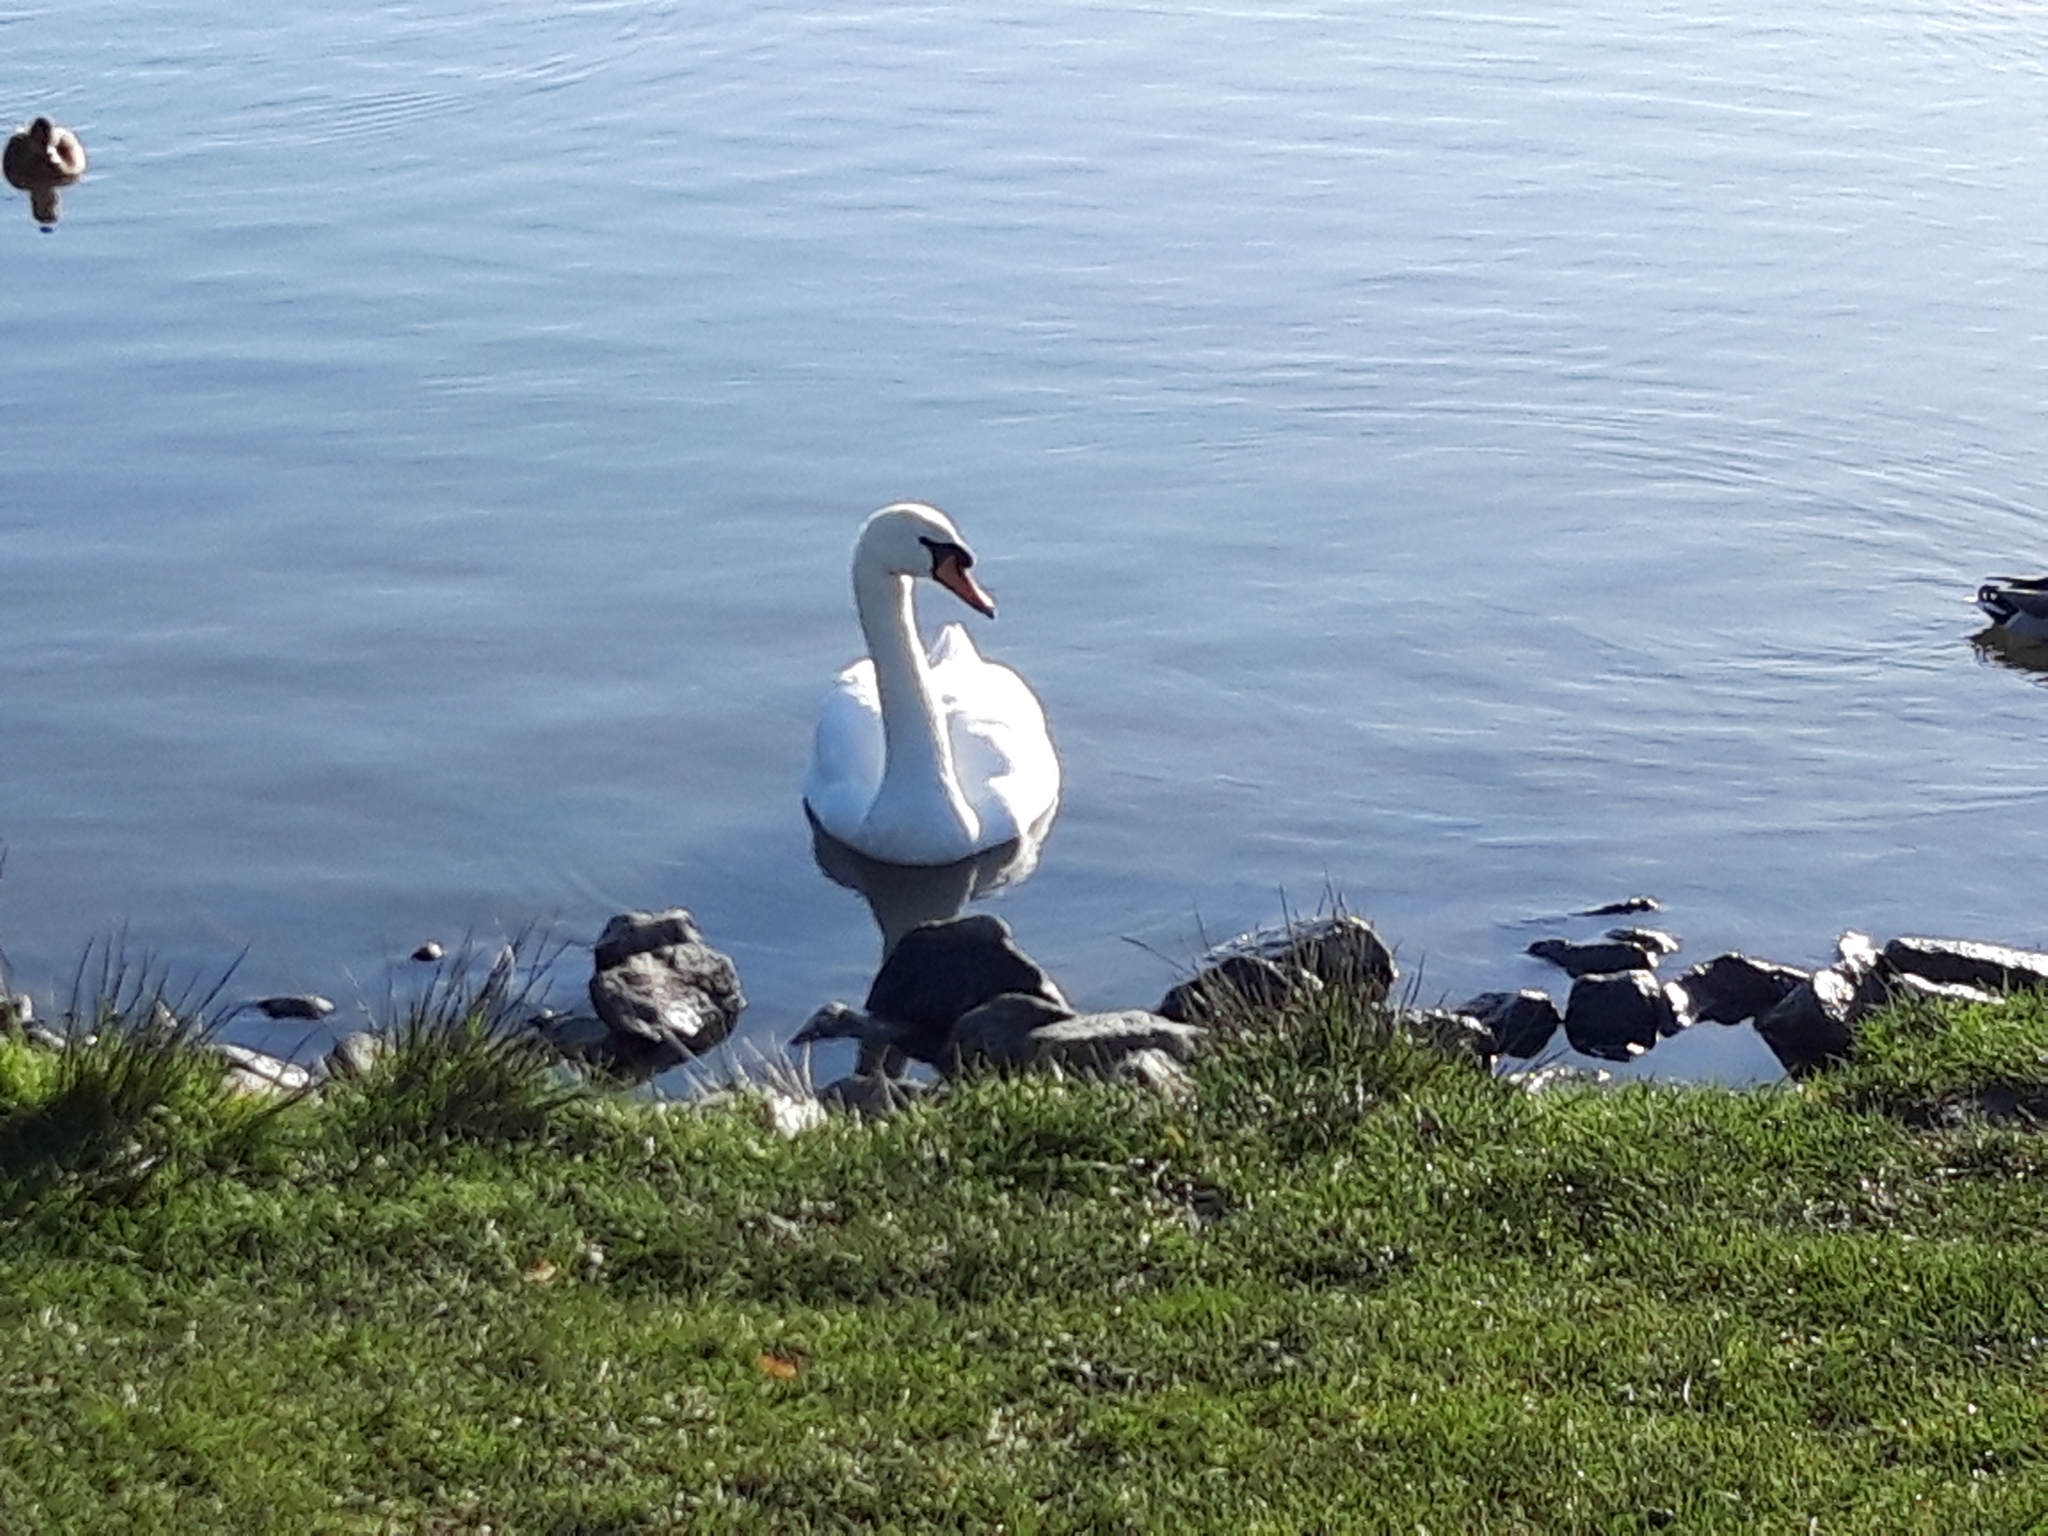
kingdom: Animalia
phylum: Chordata
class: Aves
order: Anseriformes
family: Anatidae
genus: Cygnus
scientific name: Cygnus olor
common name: Mute swan
